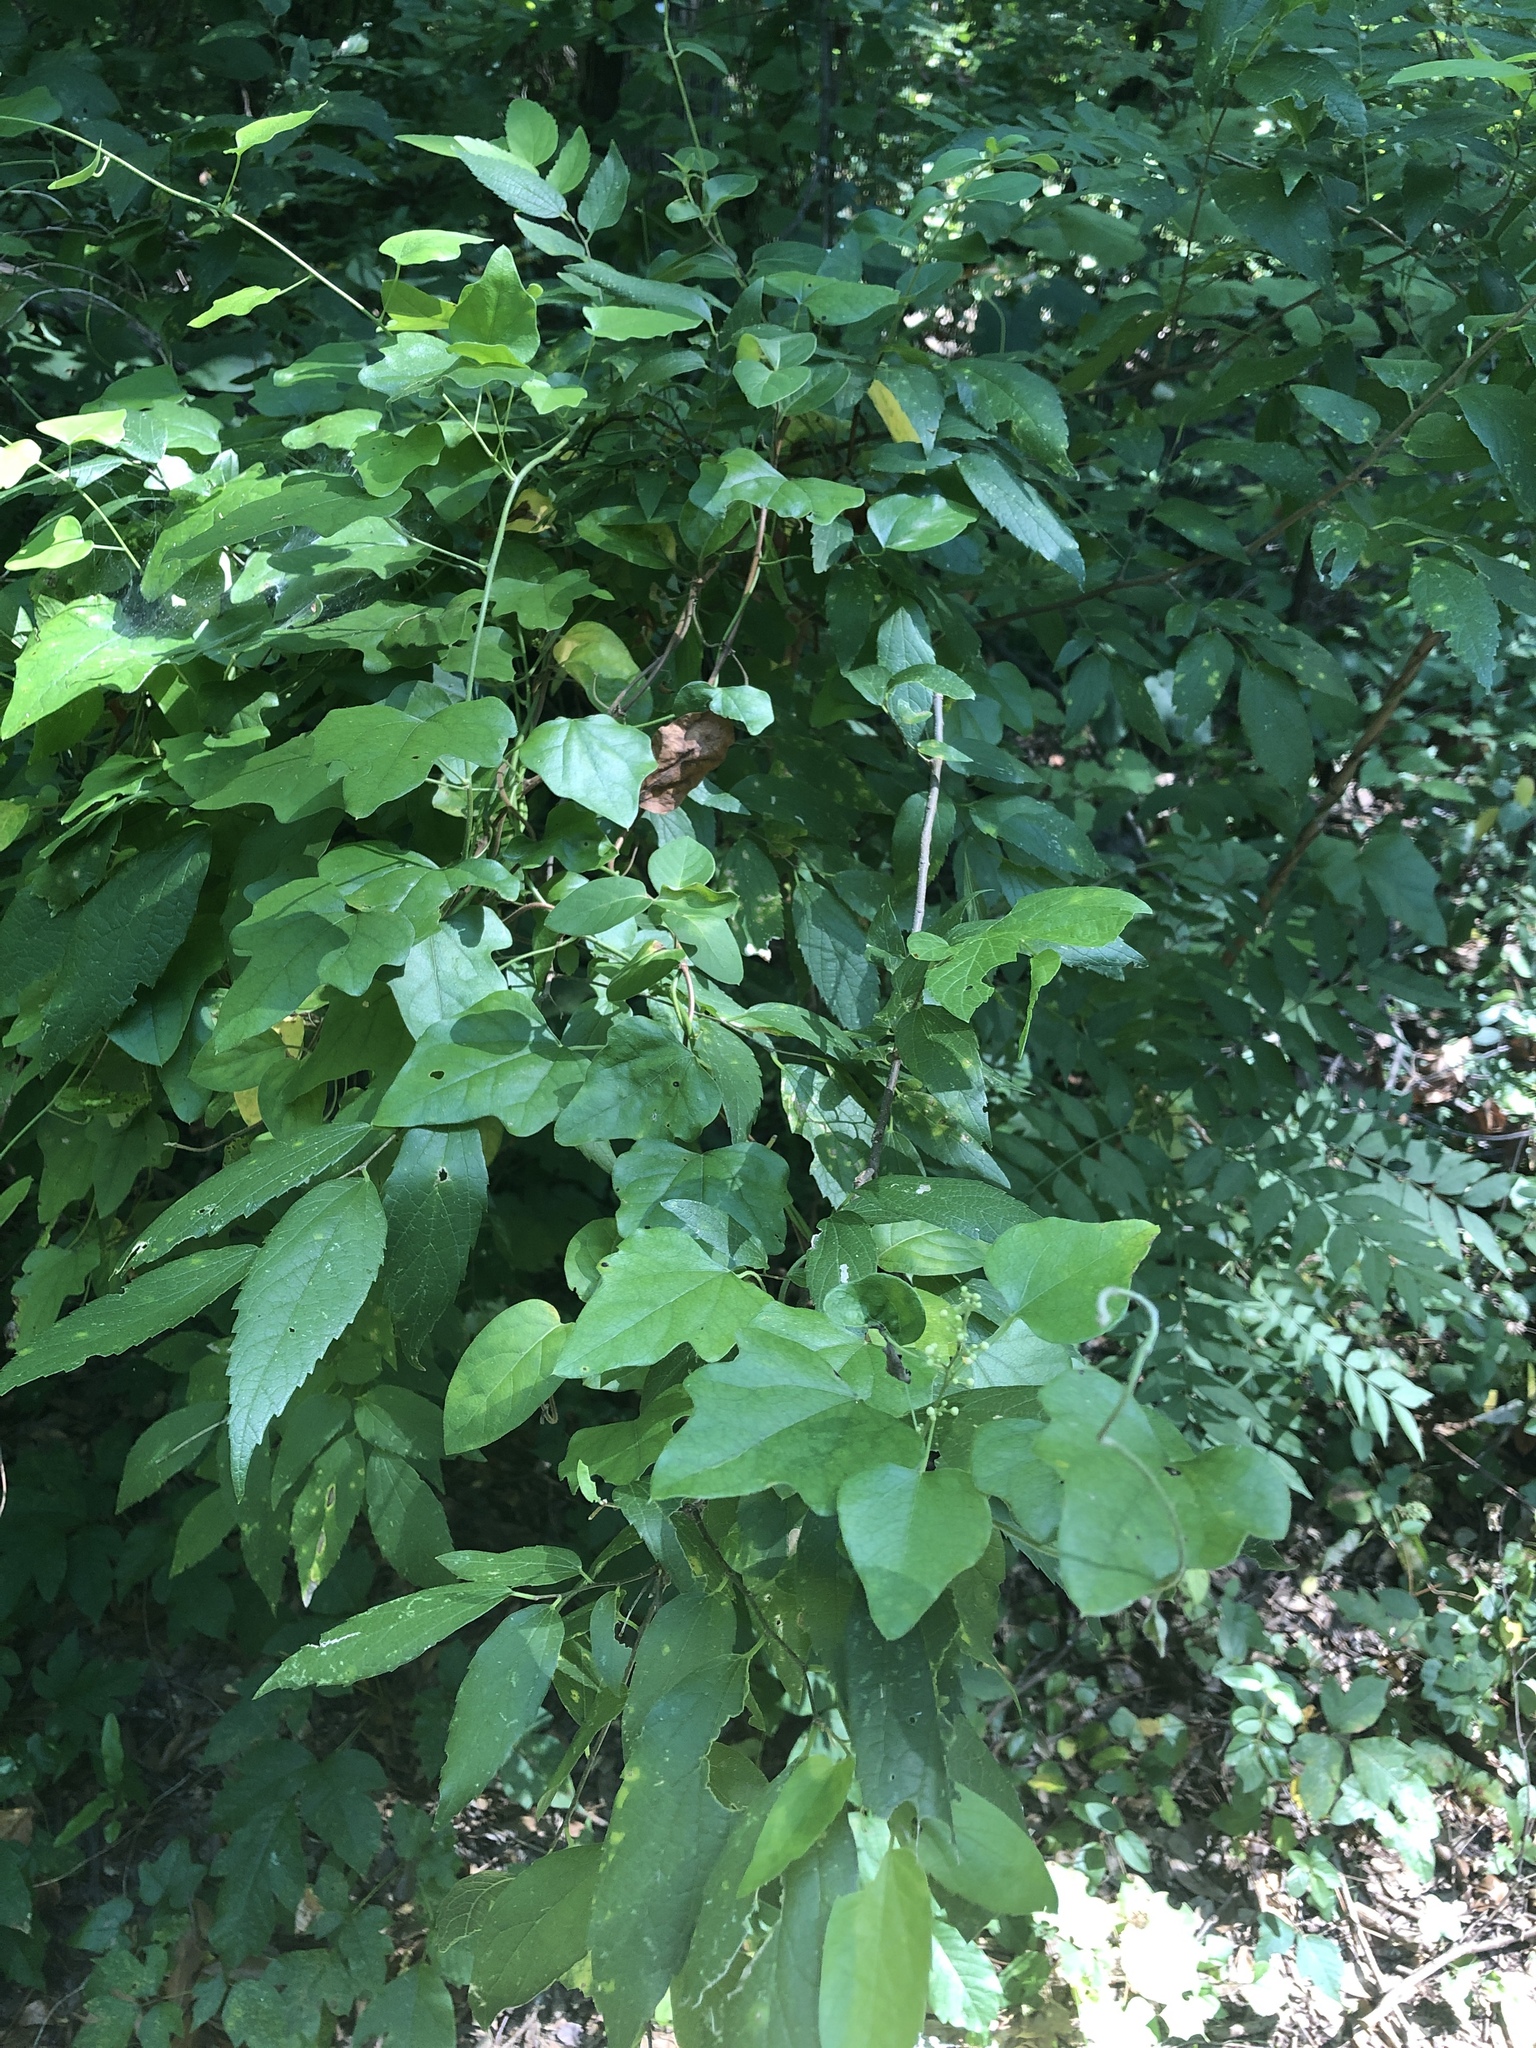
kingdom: Plantae
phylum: Tracheophyta
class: Magnoliopsida
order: Ranunculales
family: Menispermaceae
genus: Cocculus
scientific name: Cocculus carolinus
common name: Carolina moonseed
